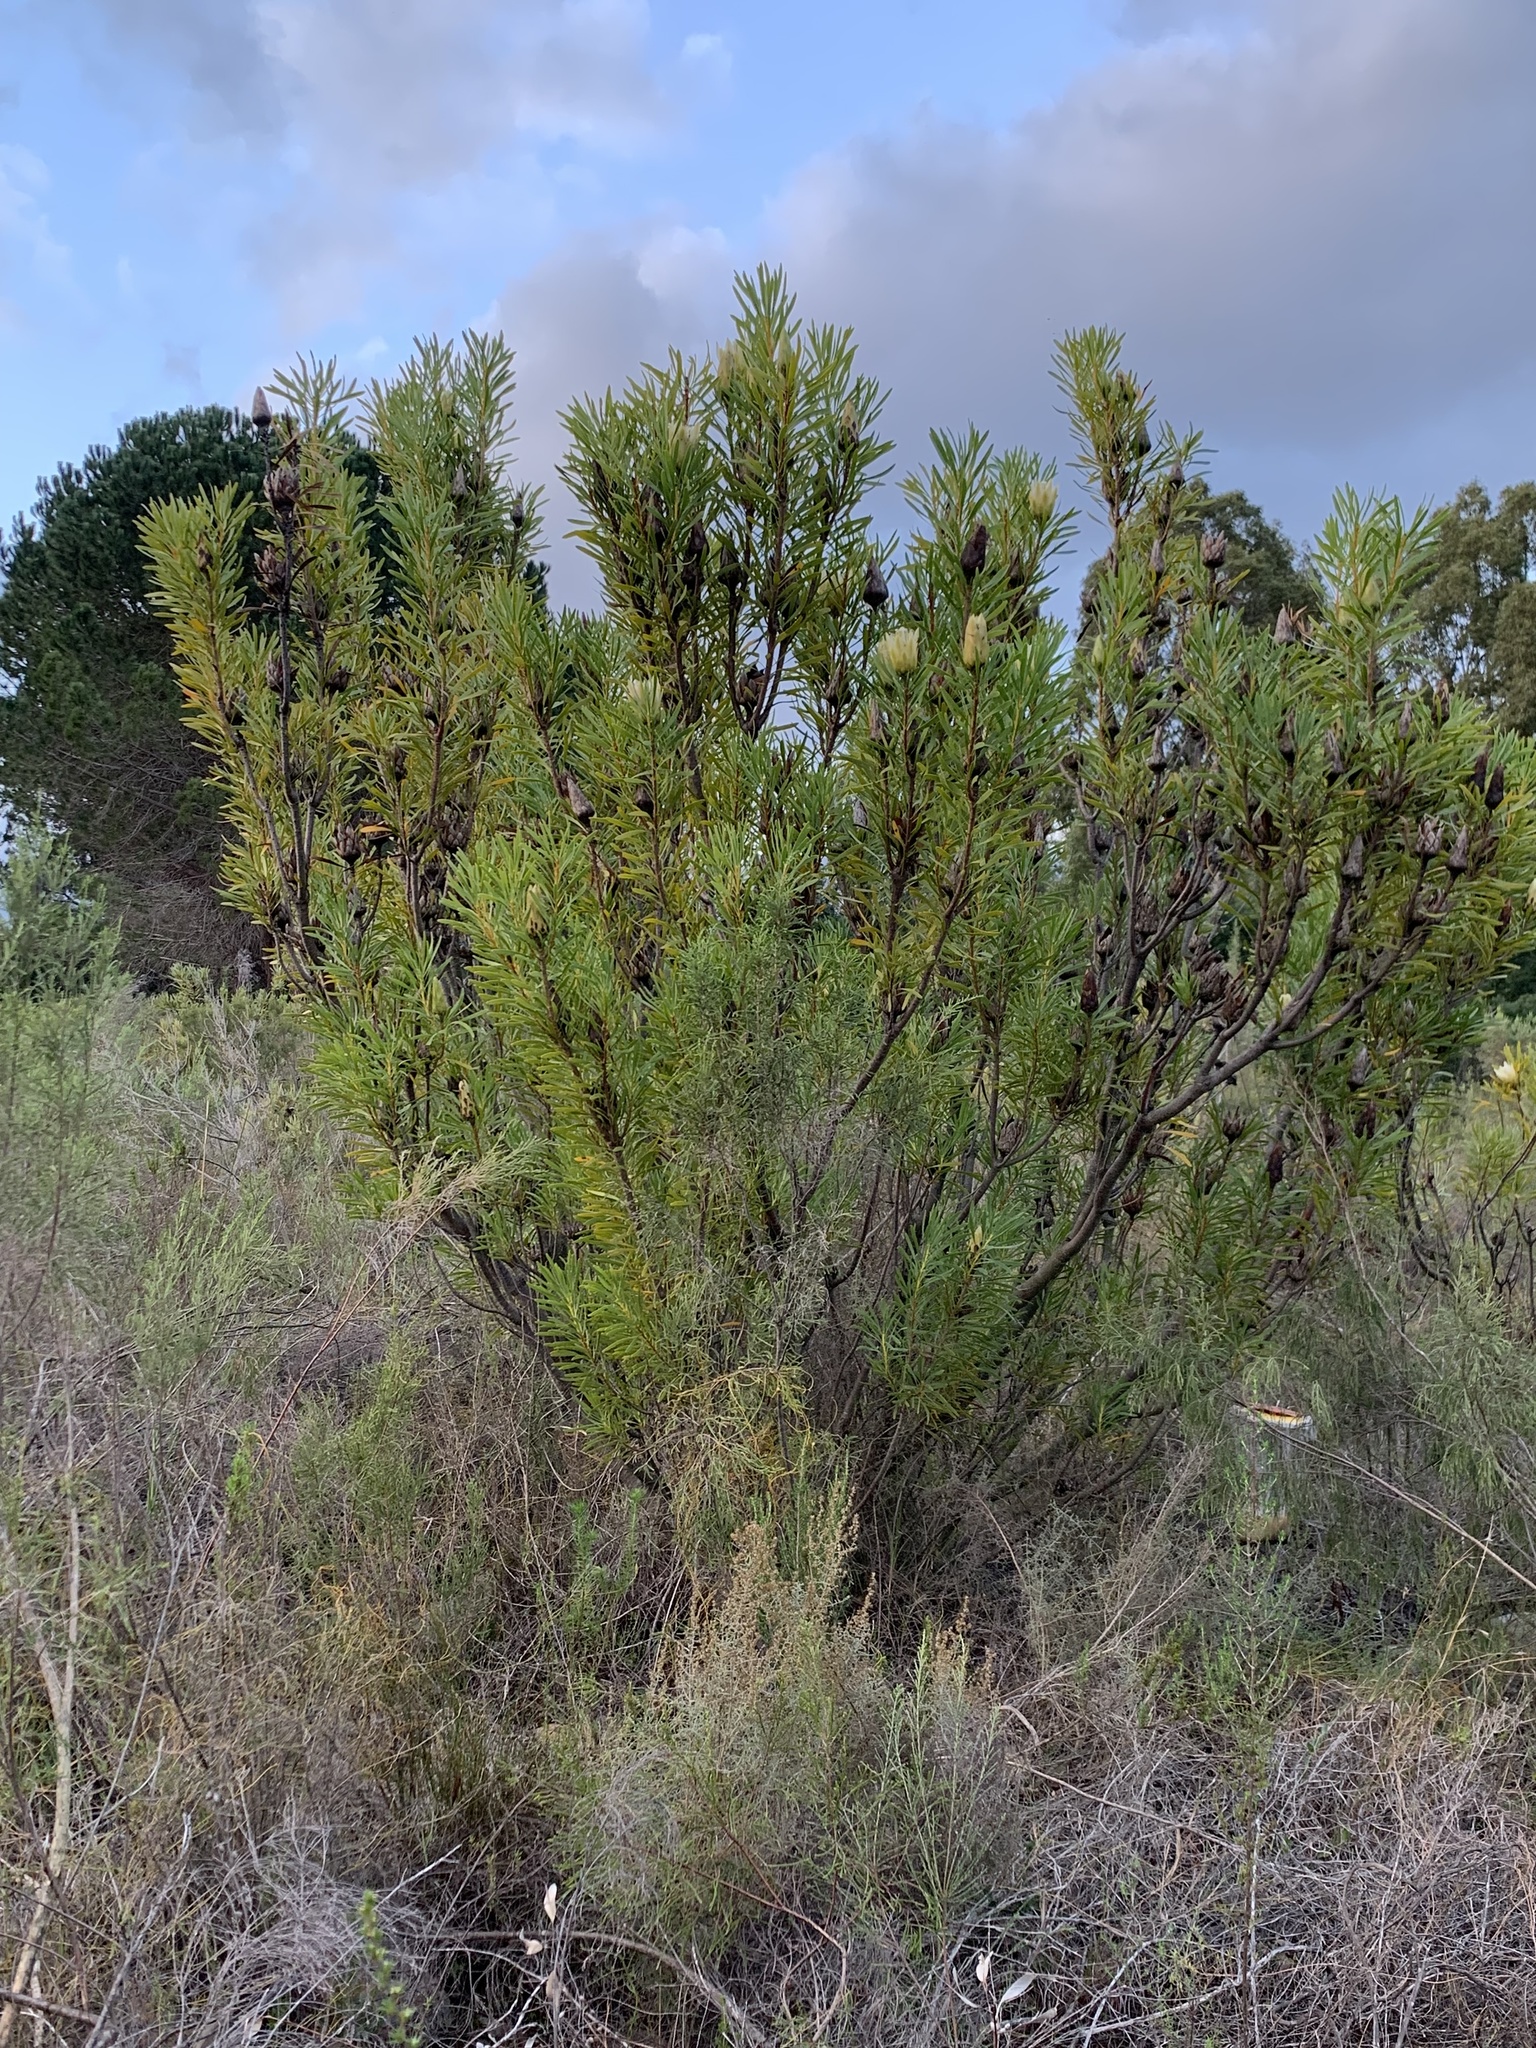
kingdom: Plantae
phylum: Tracheophyta
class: Magnoliopsida
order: Proteales
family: Proteaceae
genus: Protea
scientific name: Protea repens
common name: Sugarbush
